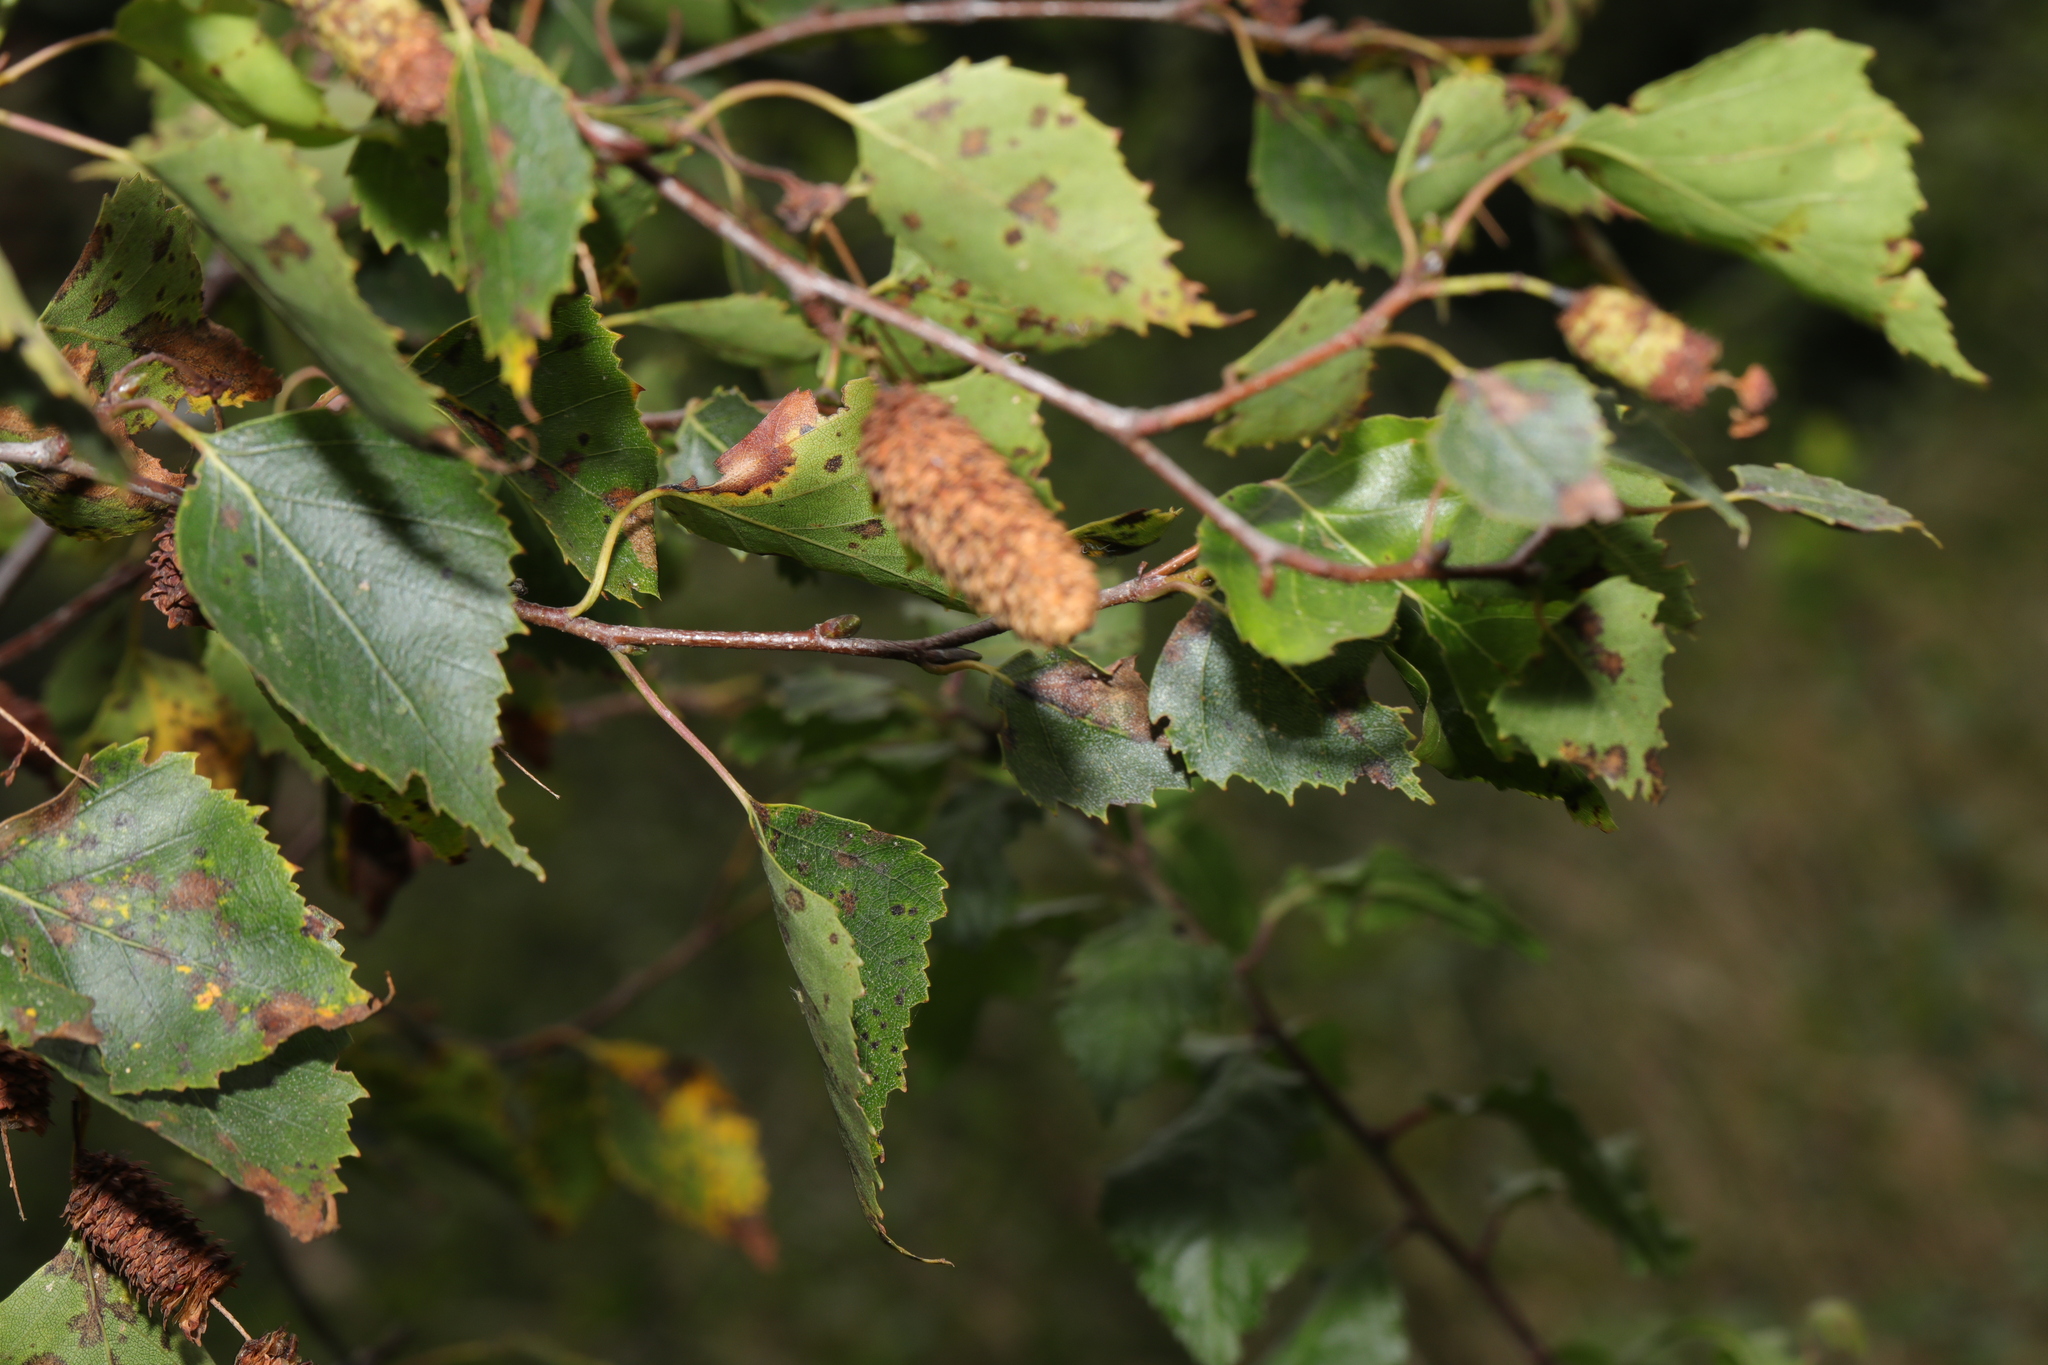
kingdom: Plantae
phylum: Tracheophyta
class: Magnoliopsida
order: Fagales
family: Betulaceae
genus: Betula
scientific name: Betula pendula
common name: Silver birch
